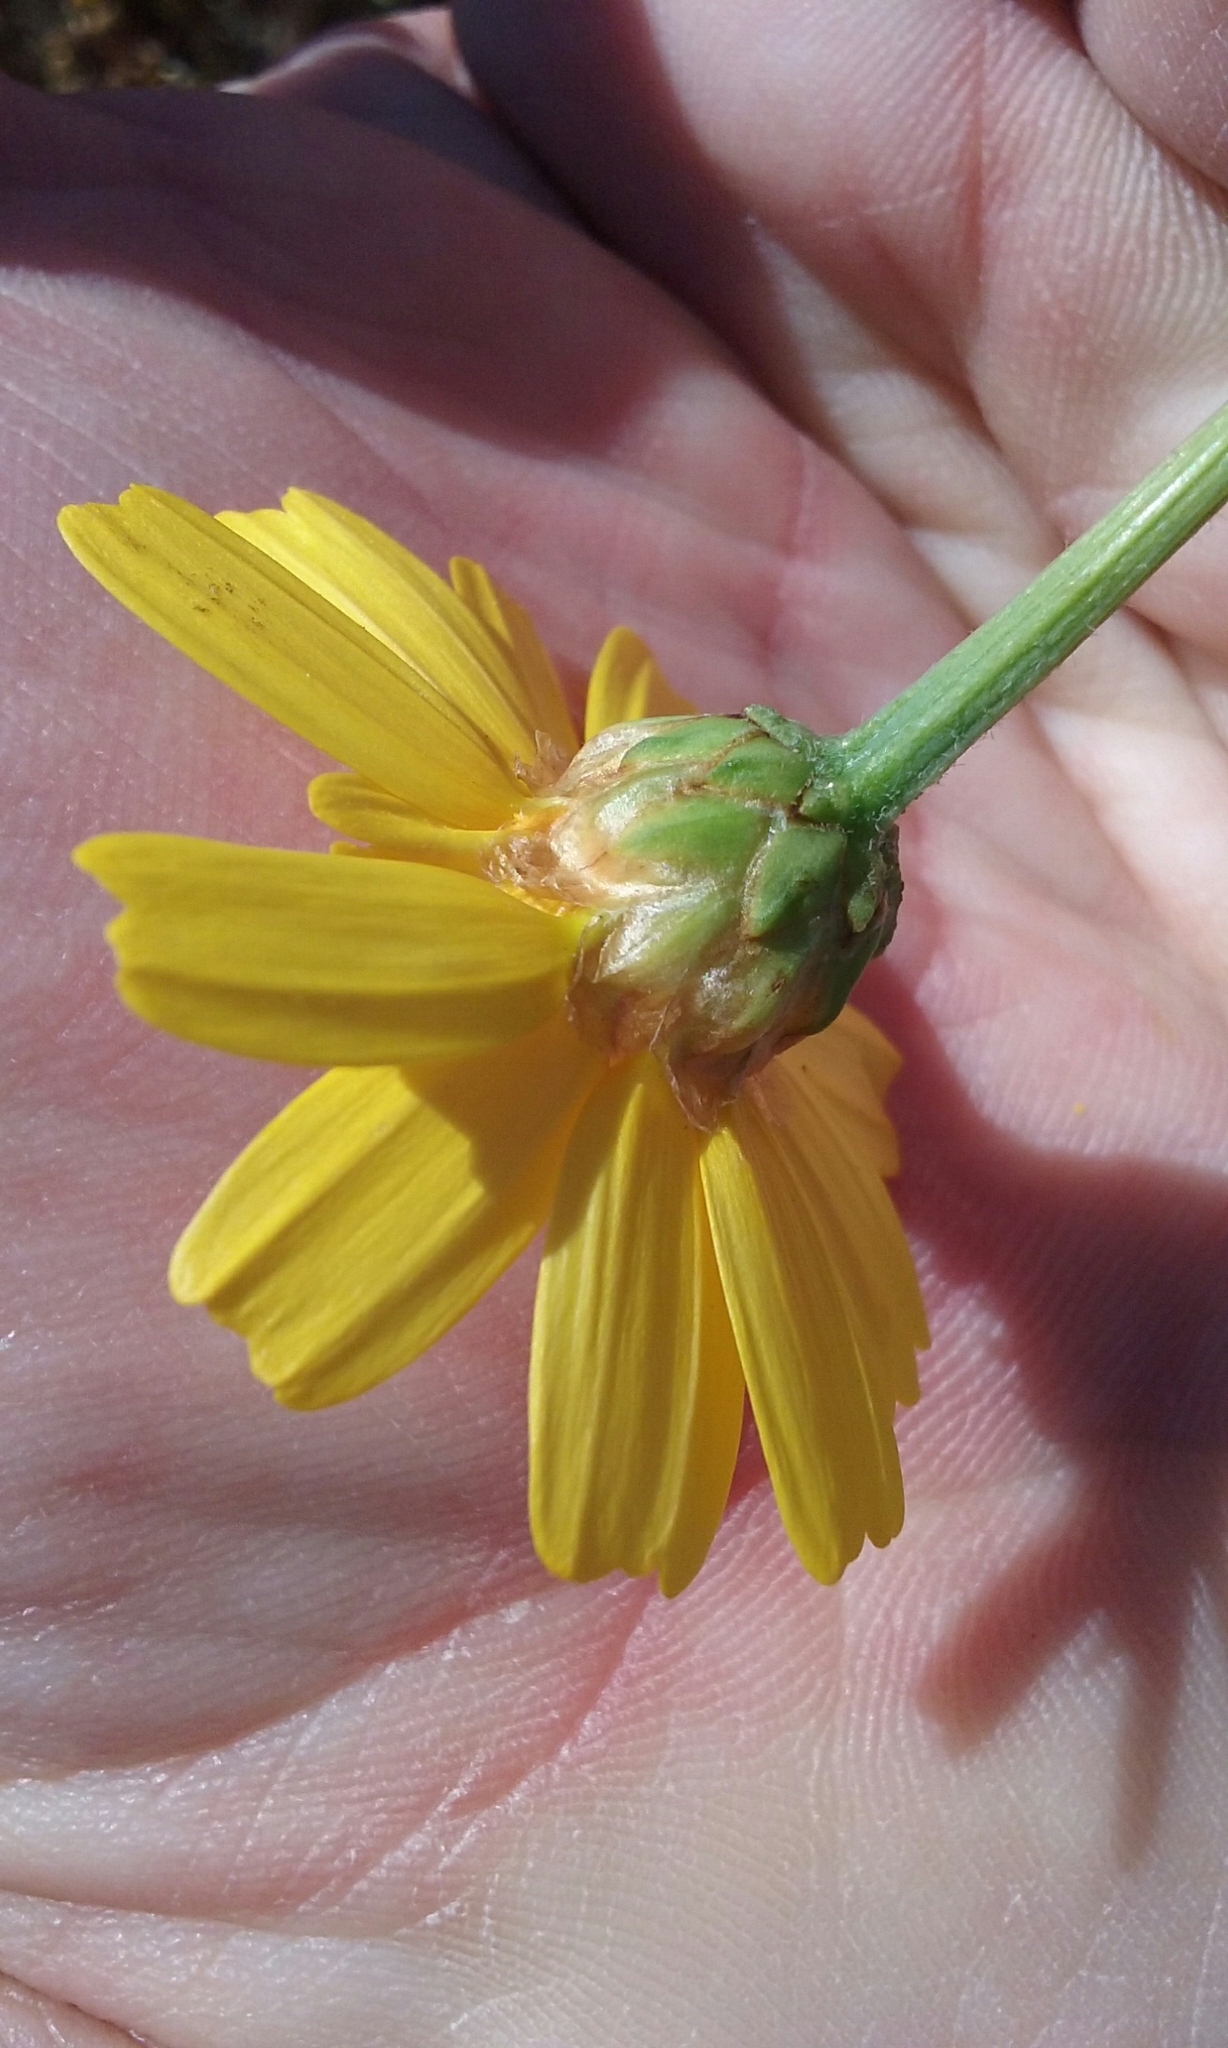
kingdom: Plantae
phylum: Tracheophyta
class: Magnoliopsida
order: Asterales
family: Asteraceae
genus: Glebionis
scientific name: Glebionis coronaria
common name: Crowndaisy
